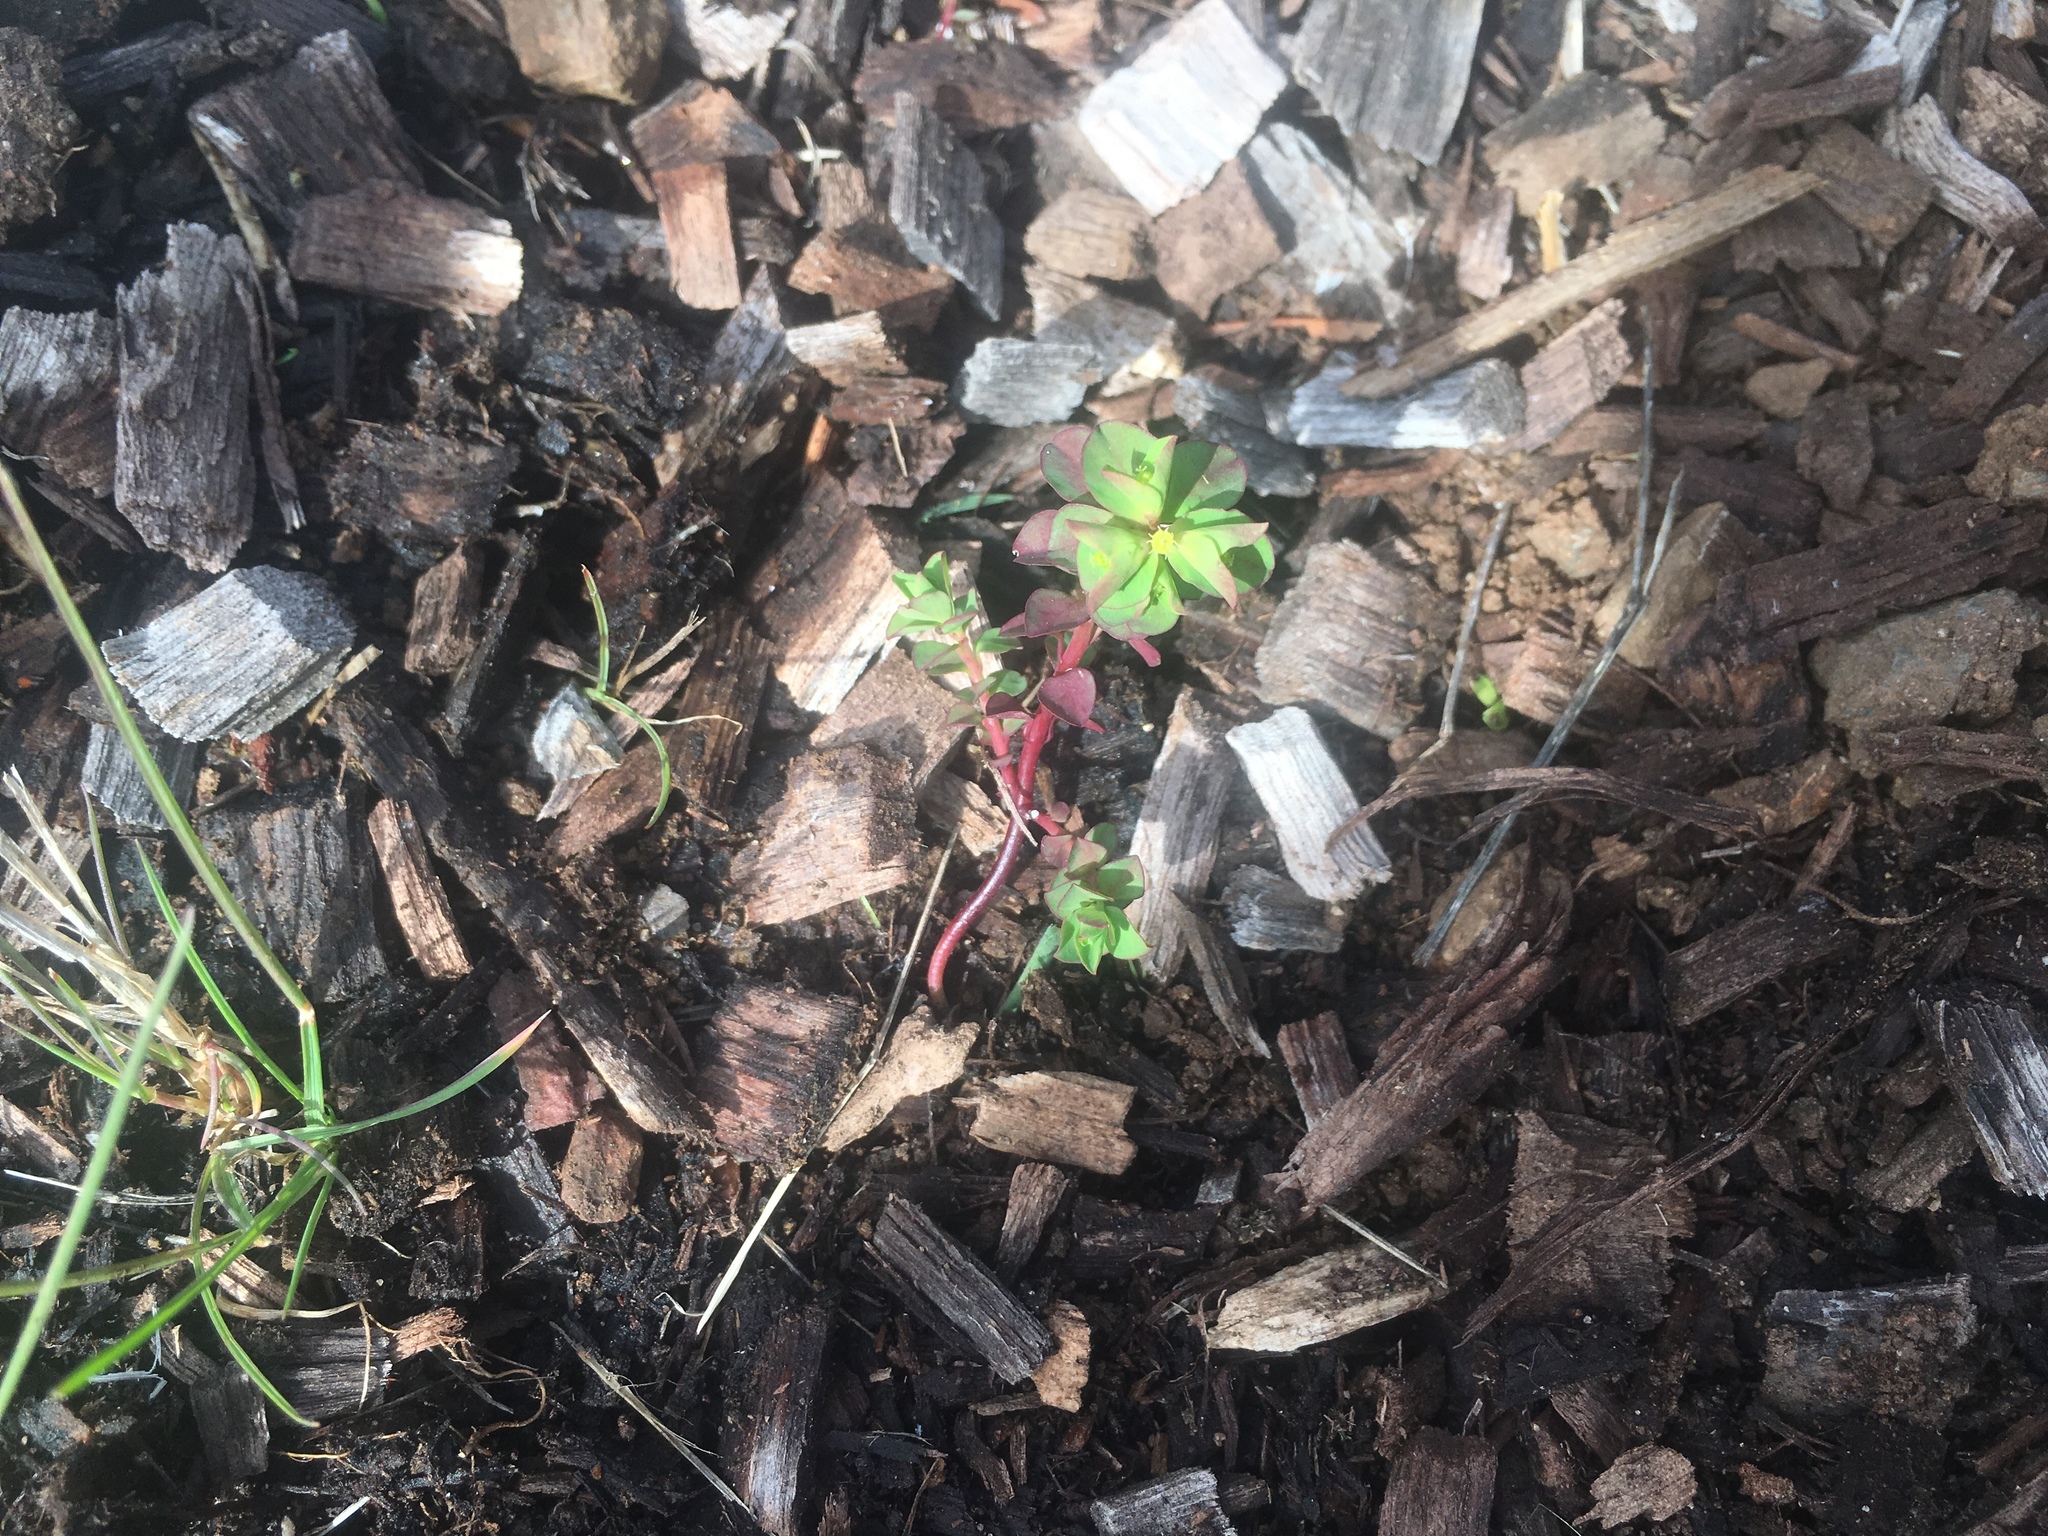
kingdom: Plantae
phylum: Tracheophyta
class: Magnoliopsida
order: Malpighiales
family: Euphorbiaceae
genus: Euphorbia
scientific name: Euphorbia peplus
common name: Petty spurge
